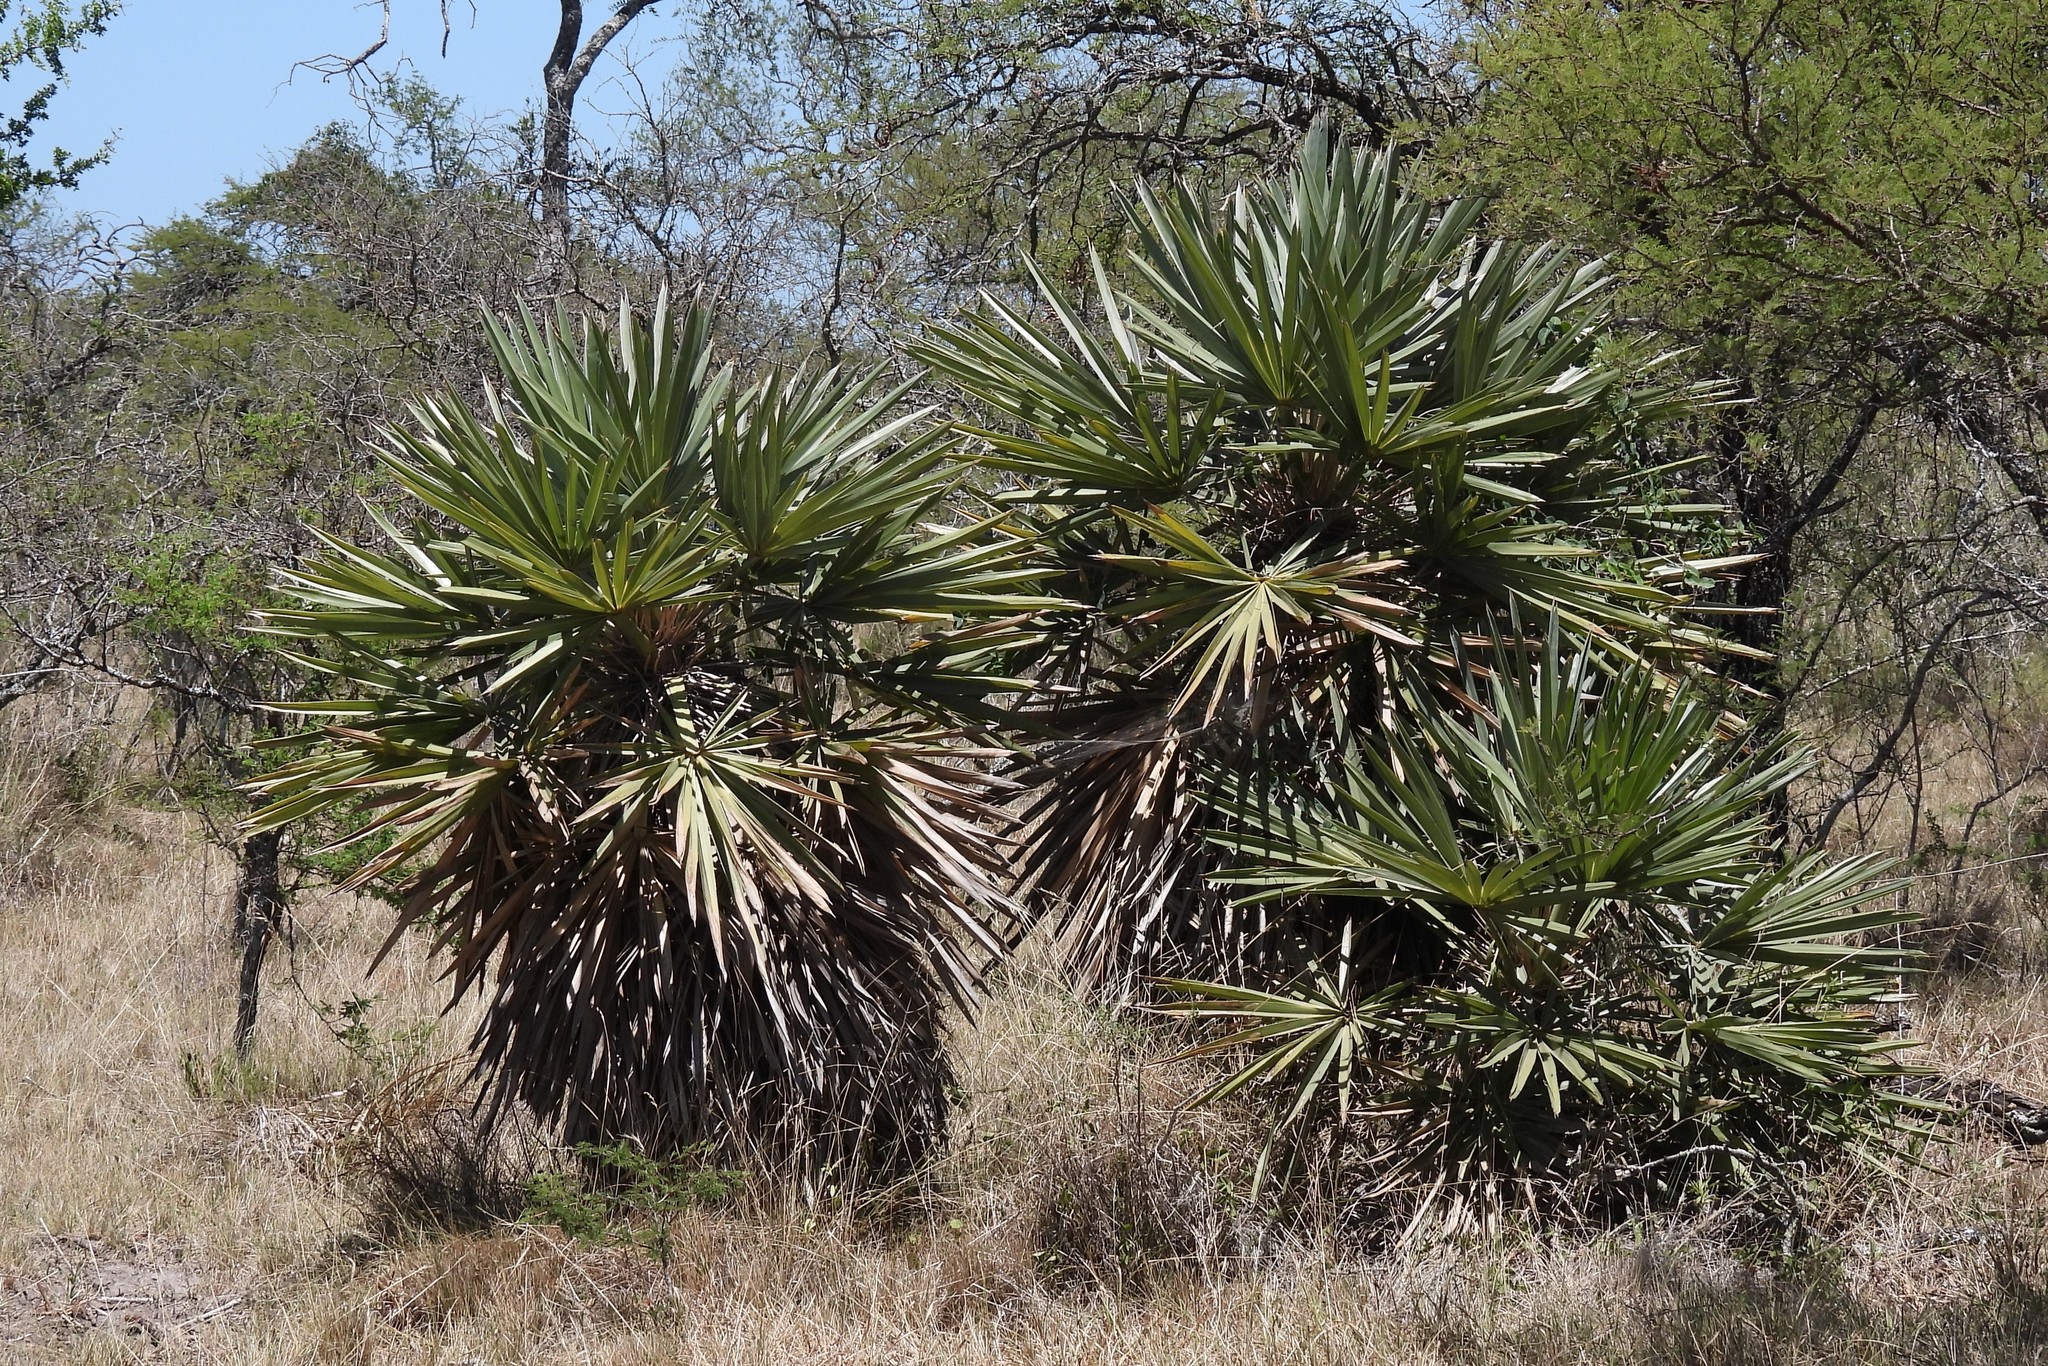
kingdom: Plantae
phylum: Tracheophyta
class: Liliopsida
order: Arecales
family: Arecaceae
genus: Trithrinax
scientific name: Trithrinax campestris
